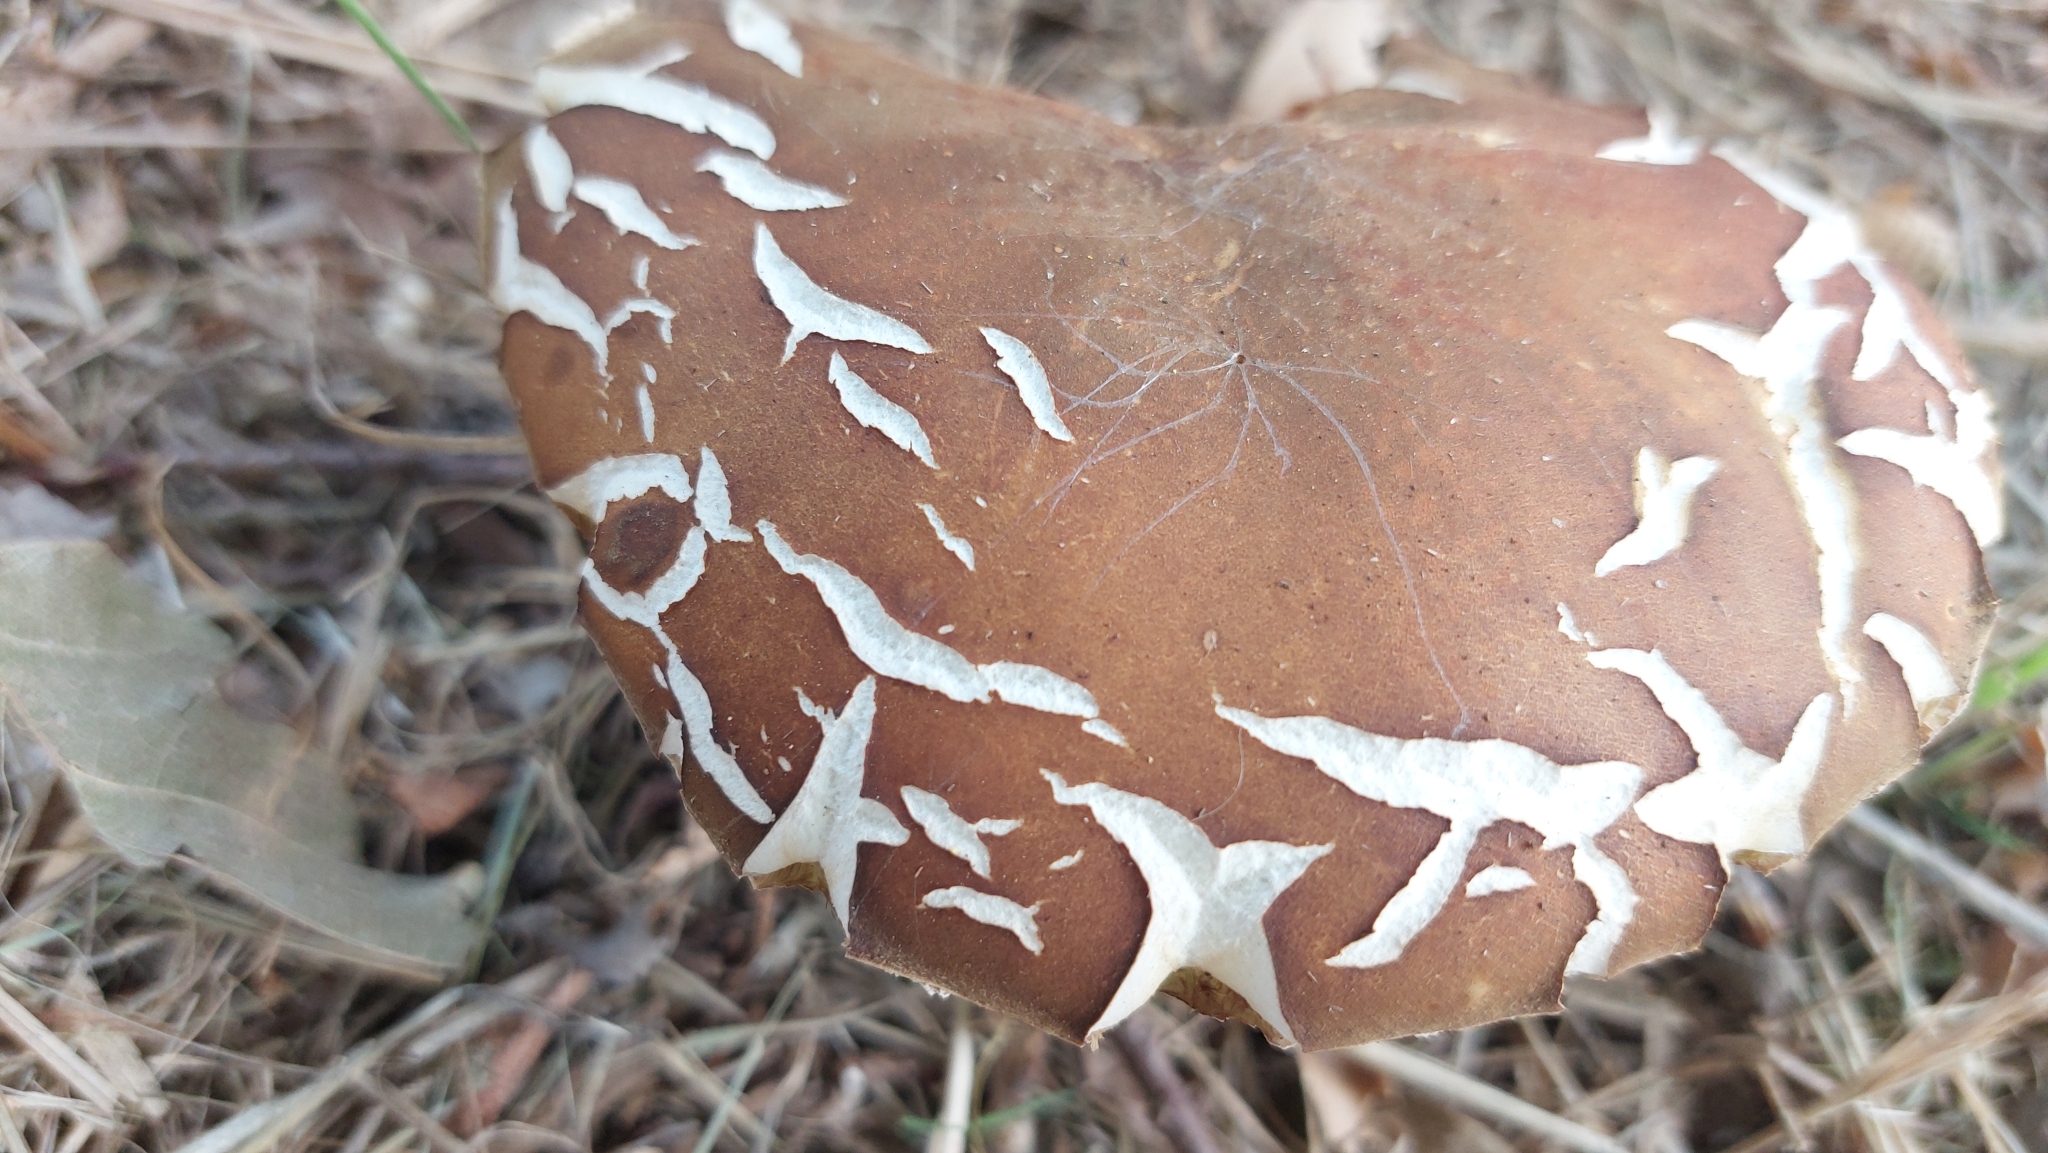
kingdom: Fungi
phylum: Basidiomycota
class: Agaricomycetes
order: Boletales
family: Boletaceae
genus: Boletus
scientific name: Boletus reticulatus
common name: Summer bolete
